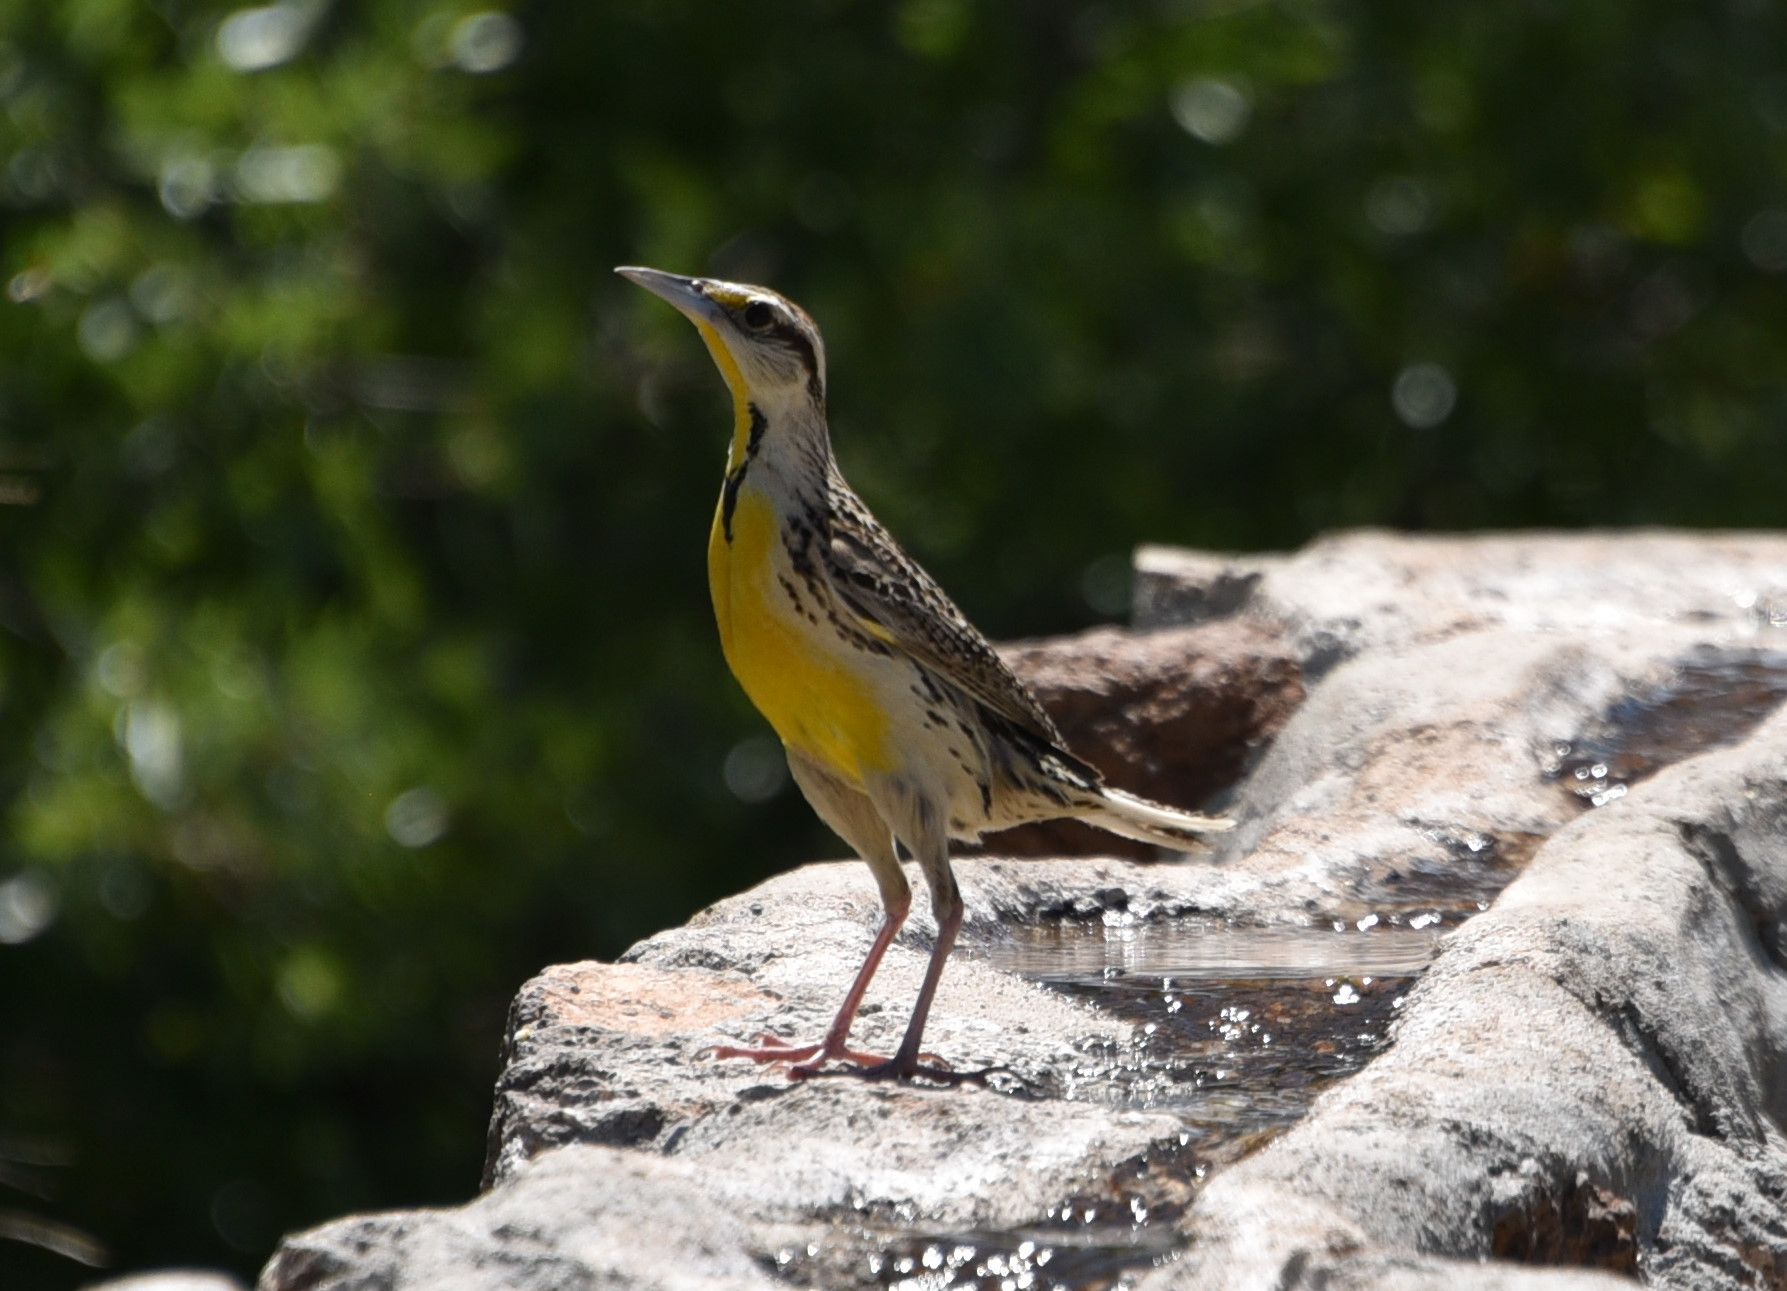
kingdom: Animalia
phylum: Chordata
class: Aves
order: Passeriformes
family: Icteridae
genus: Sturnella
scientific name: Sturnella lilianae
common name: Lilian's meadowlark
